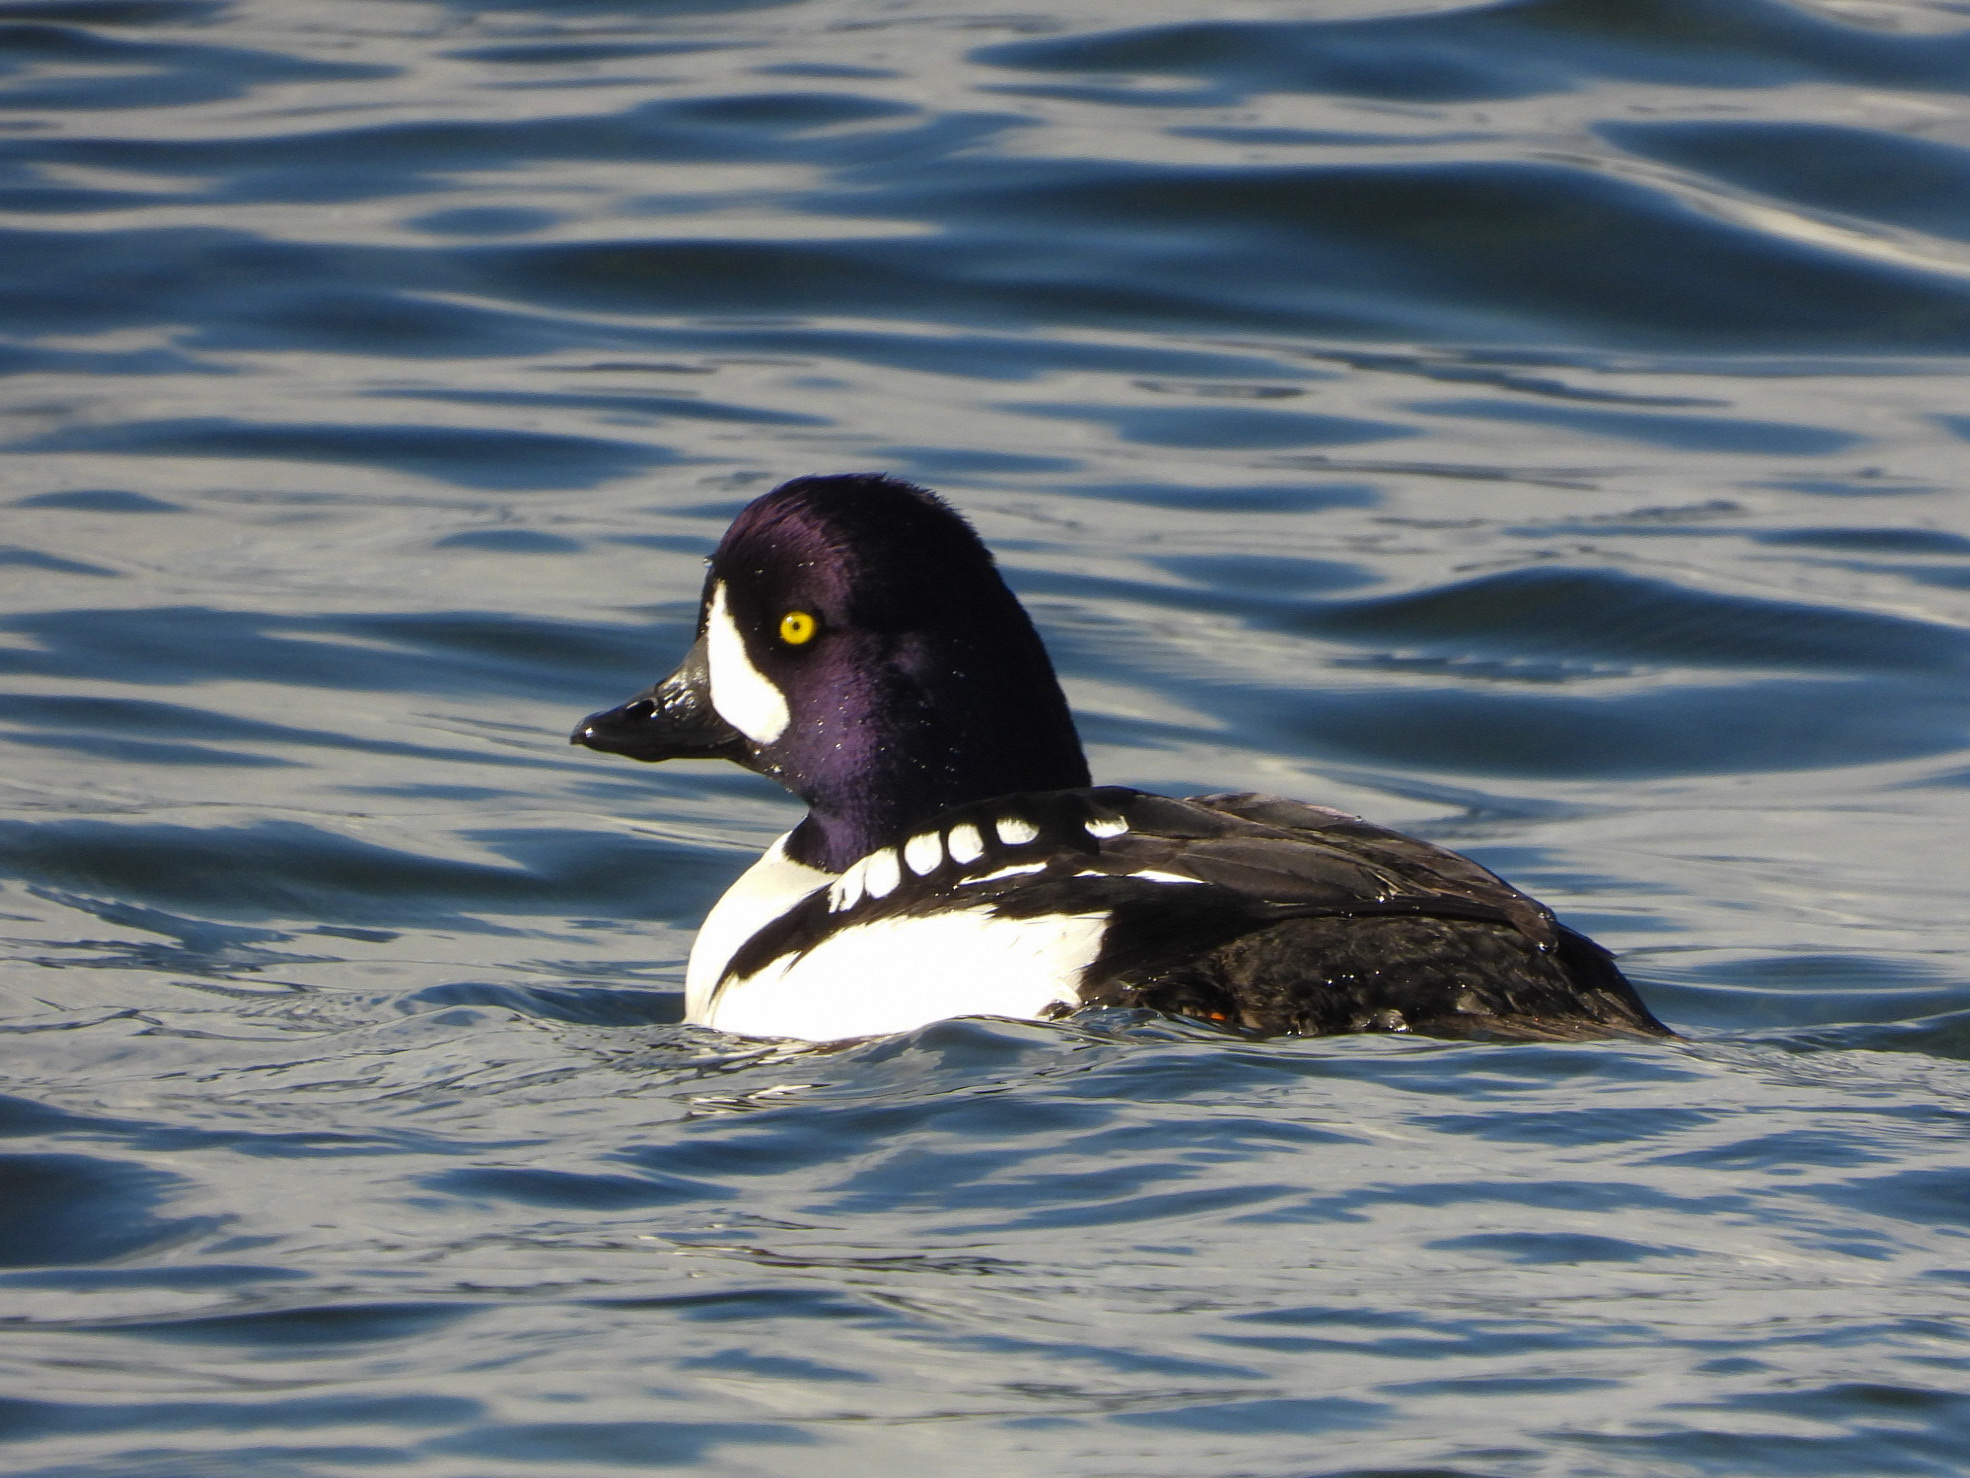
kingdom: Animalia
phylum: Chordata
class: Aves
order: Anseriformes
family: Anatidae
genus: Bucephala
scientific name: Bucephala islandica
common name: Barrow's goldeneye
